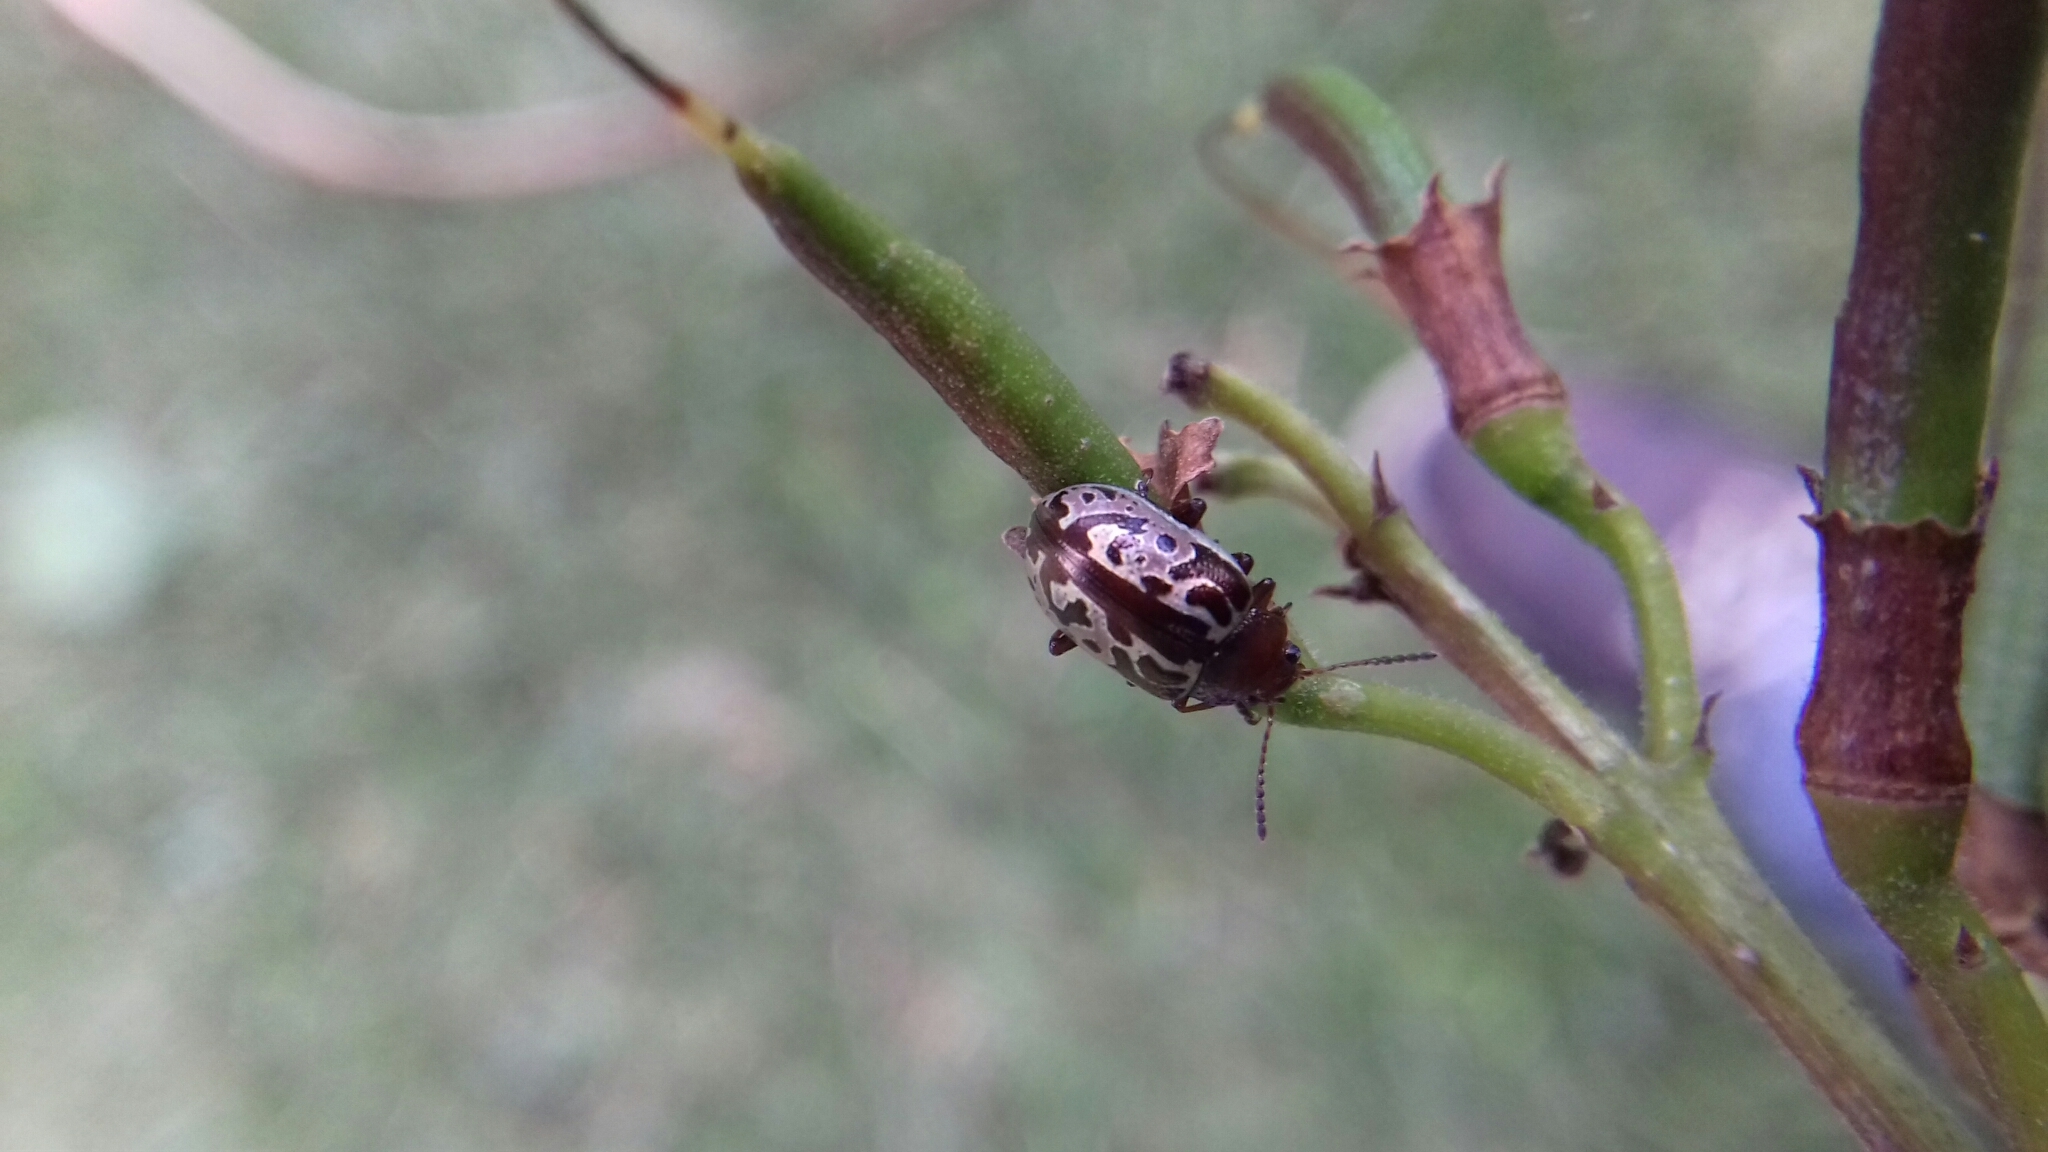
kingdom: Animalia
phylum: Arthropoda
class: Insecta
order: Coleoptera
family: Chrysomelidae
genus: Calligrapha
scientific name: Calligrapha
